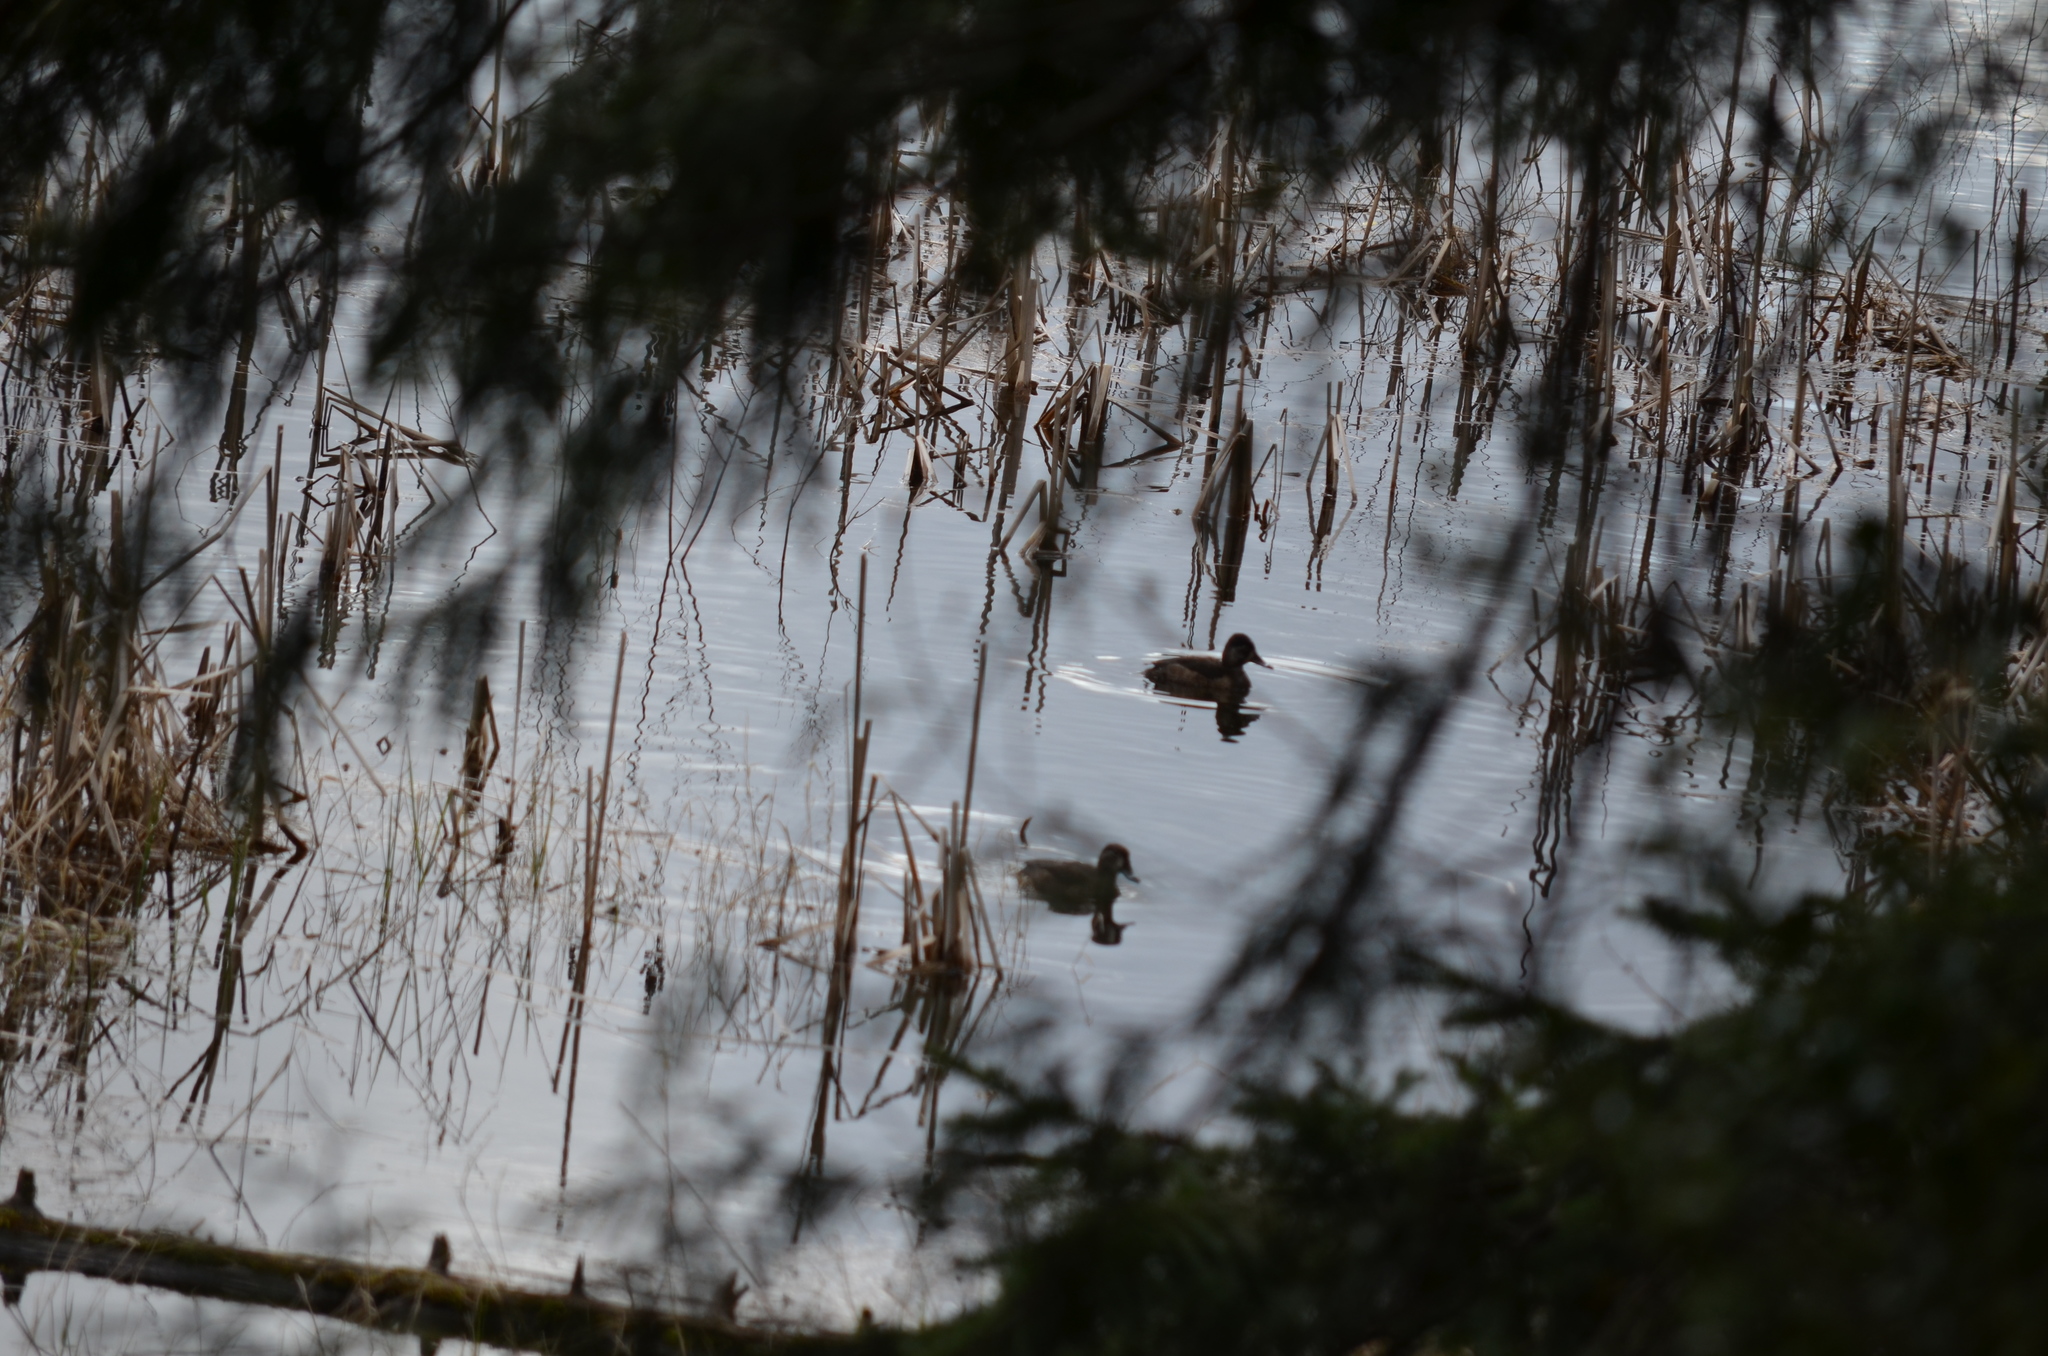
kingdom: Animalia
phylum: Chordata
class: Aves
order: Anseriformes
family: Anatidae
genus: Aythya
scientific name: Aythya collaris
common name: Ring-necked duck
